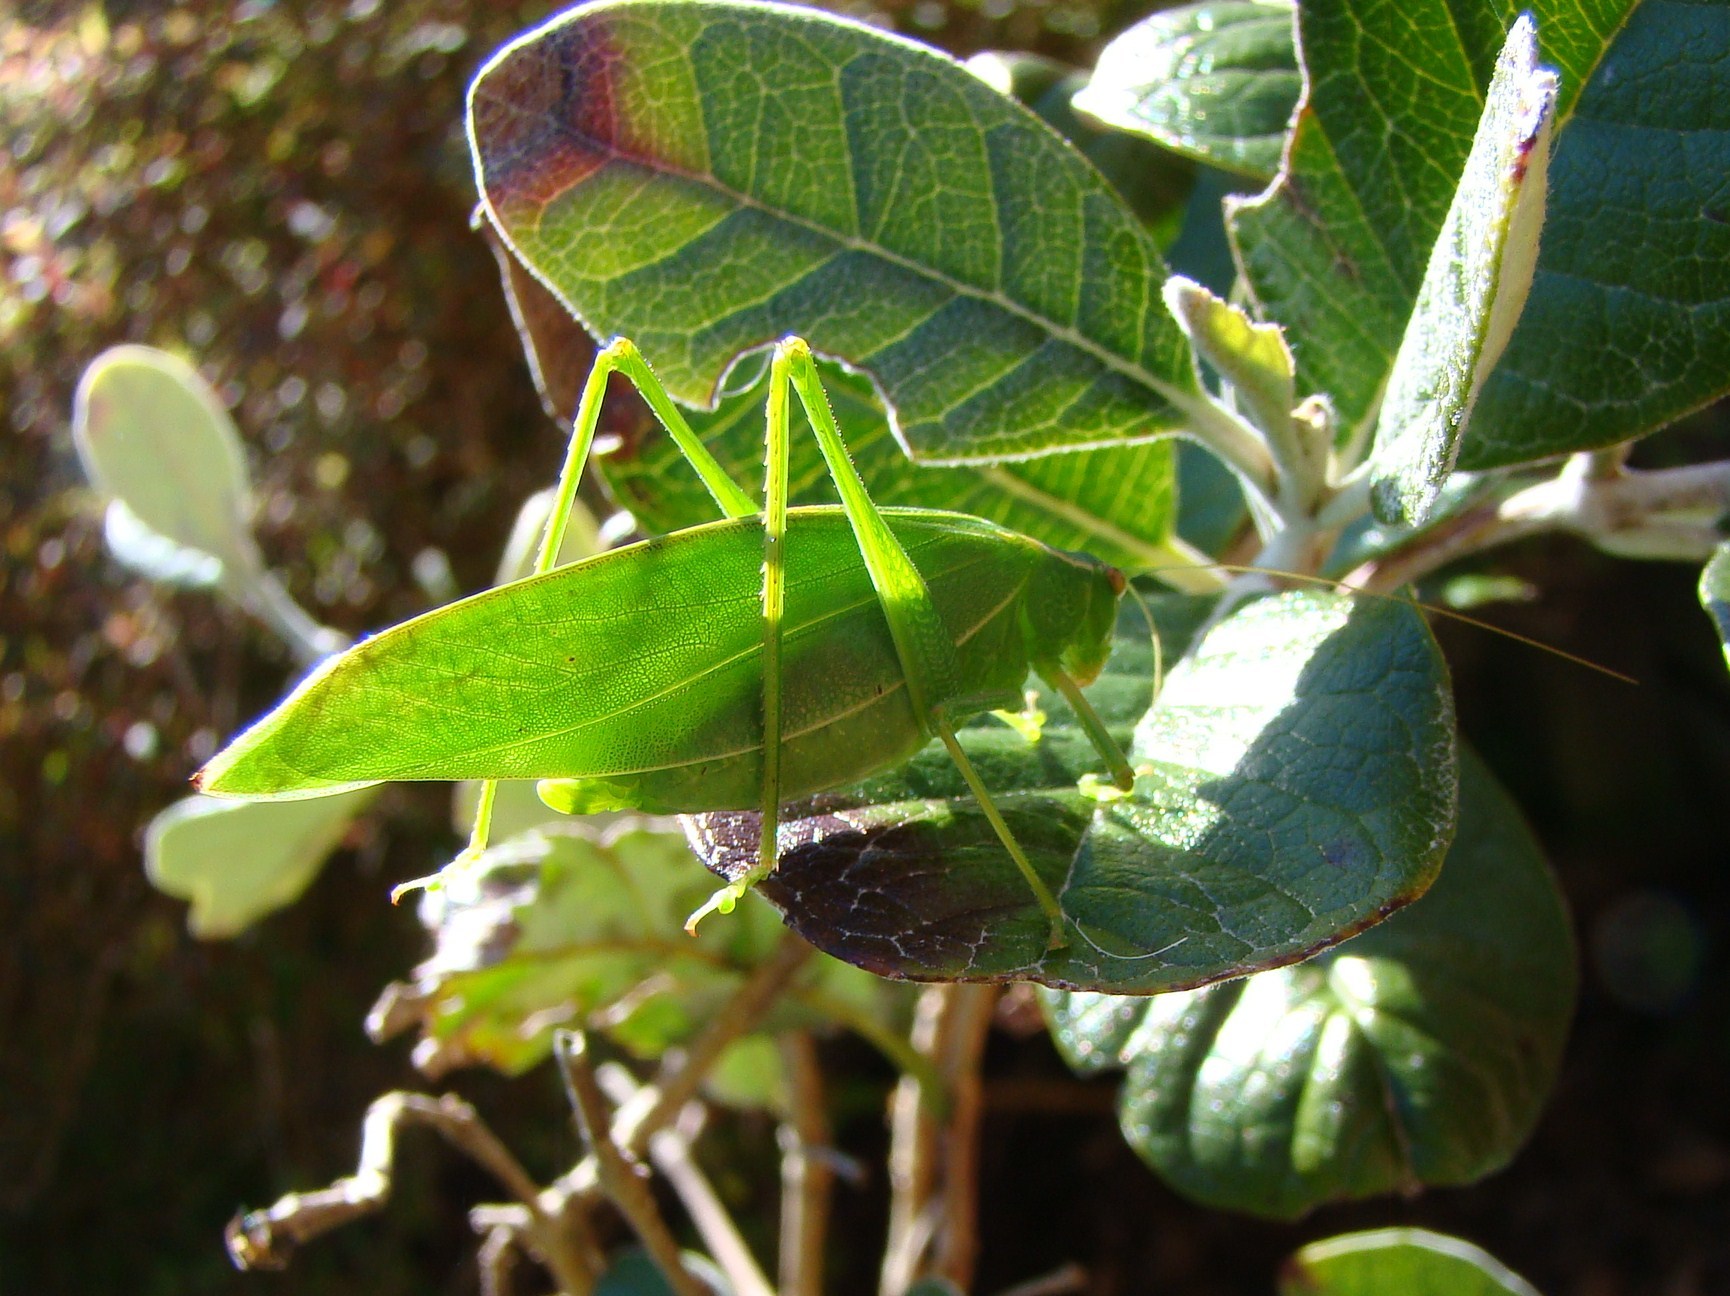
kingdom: Animalia
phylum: Arthropoda
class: Insecta
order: Orthoptera
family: Tettigoniidae
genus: Caedicia
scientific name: Caedicia simplex
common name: Common garden katydid
